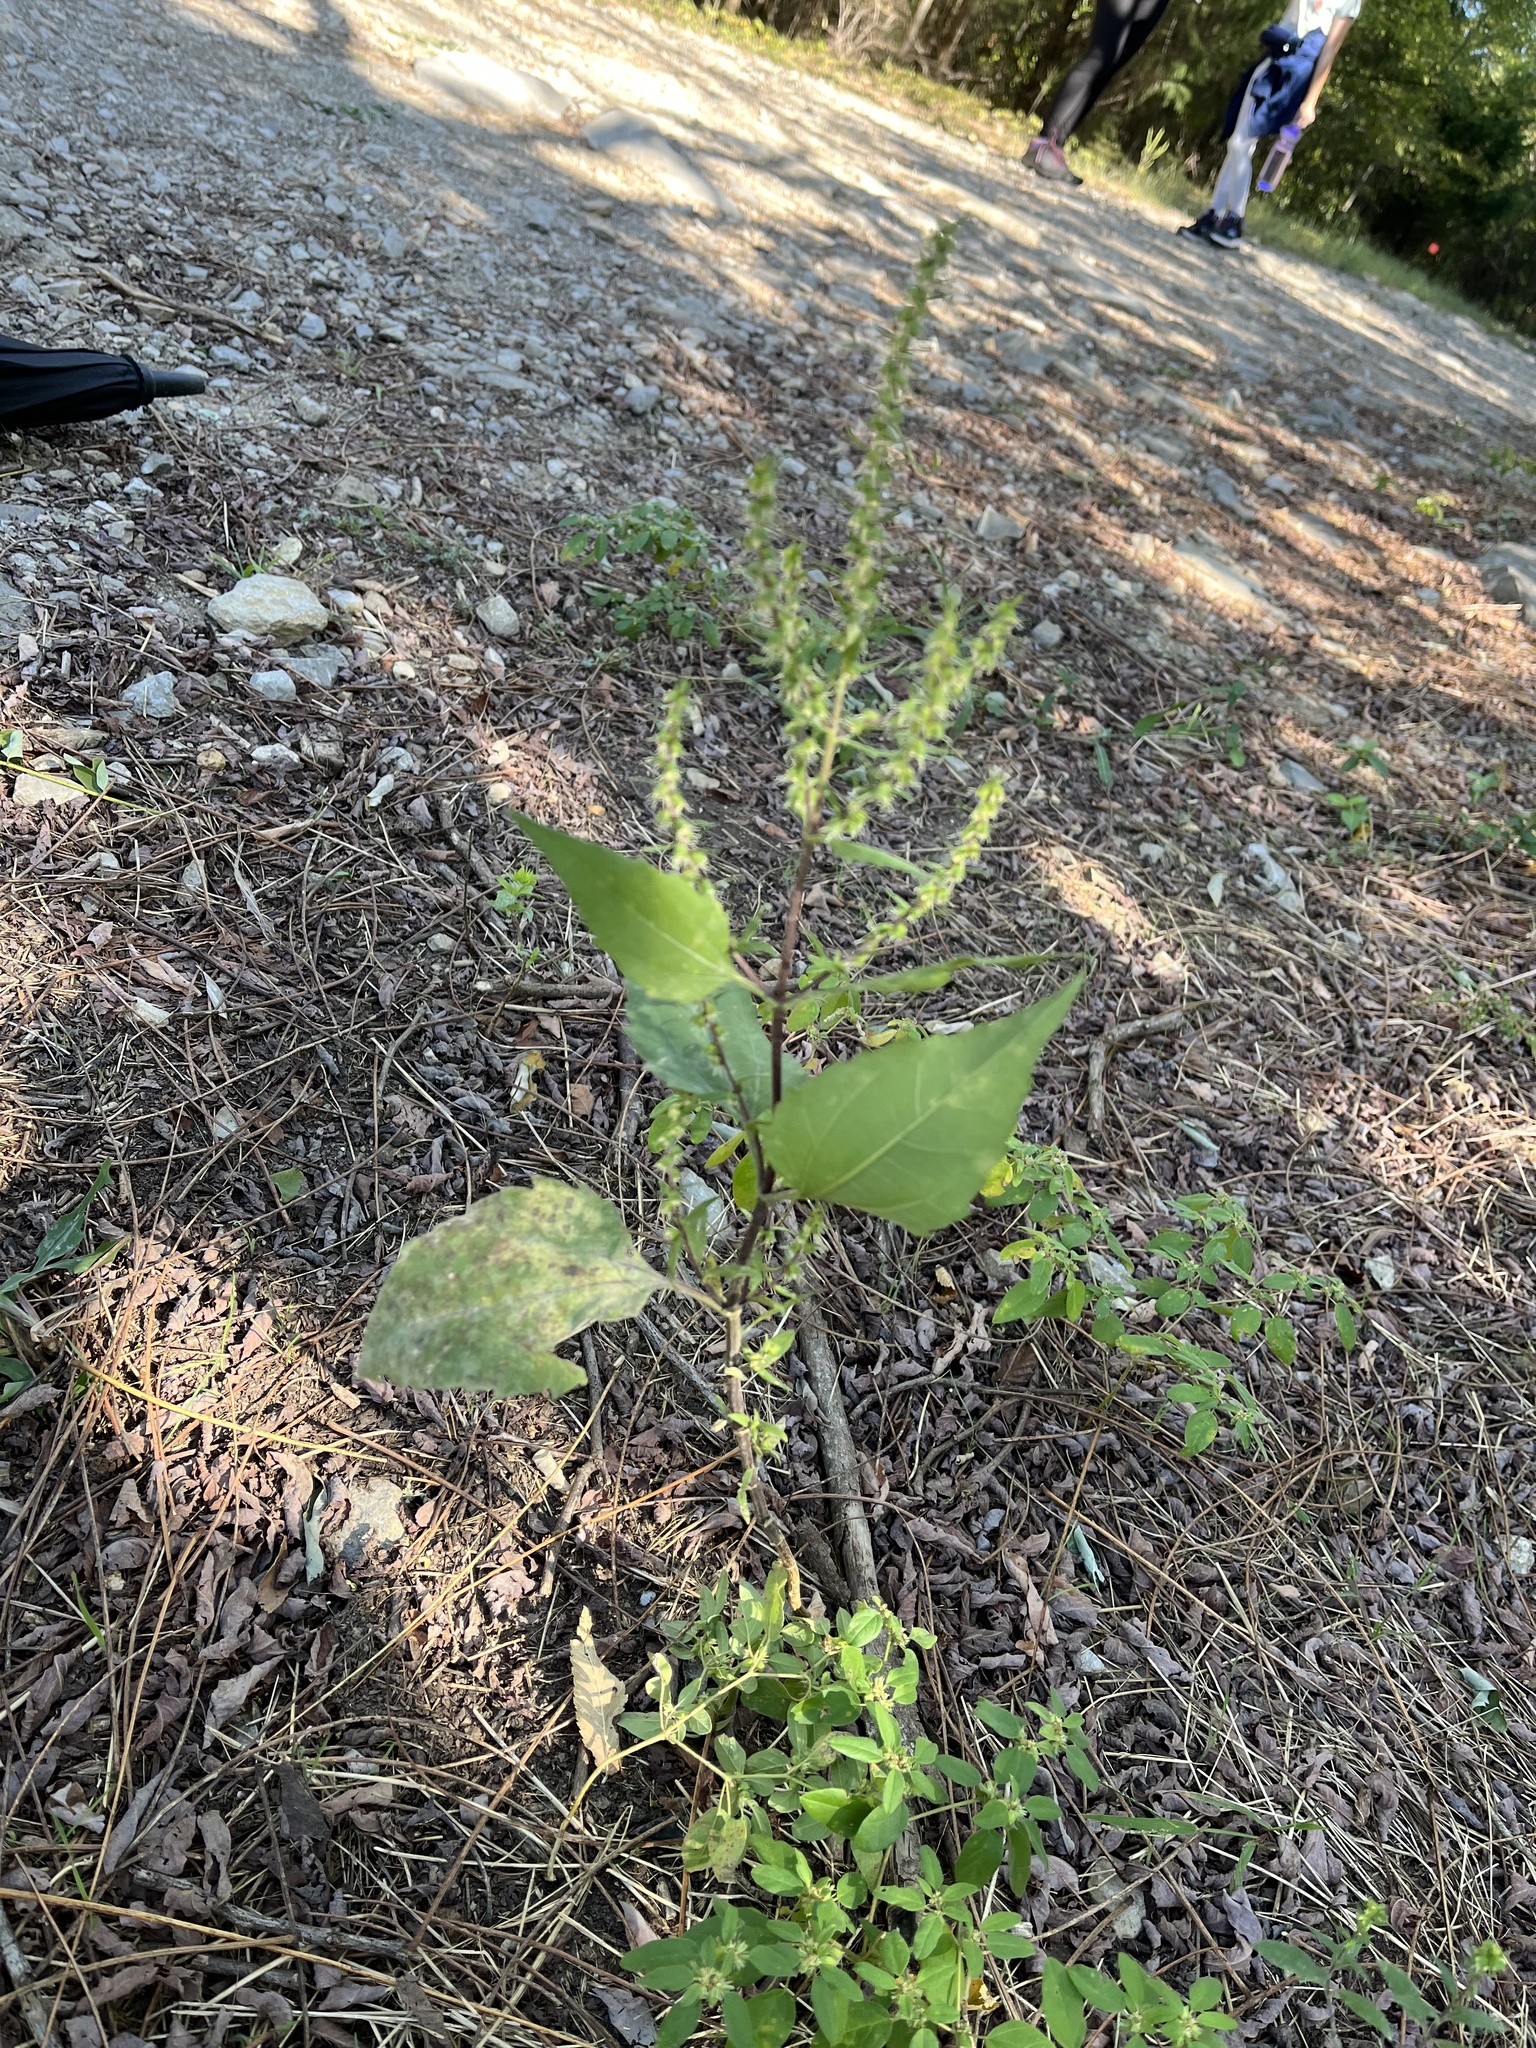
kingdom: Plantae
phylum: Tracheophyta
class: Magnoliopsida
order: Asterales
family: Asteraceae
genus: Iva
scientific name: Iva annua
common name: Marsh-elder
